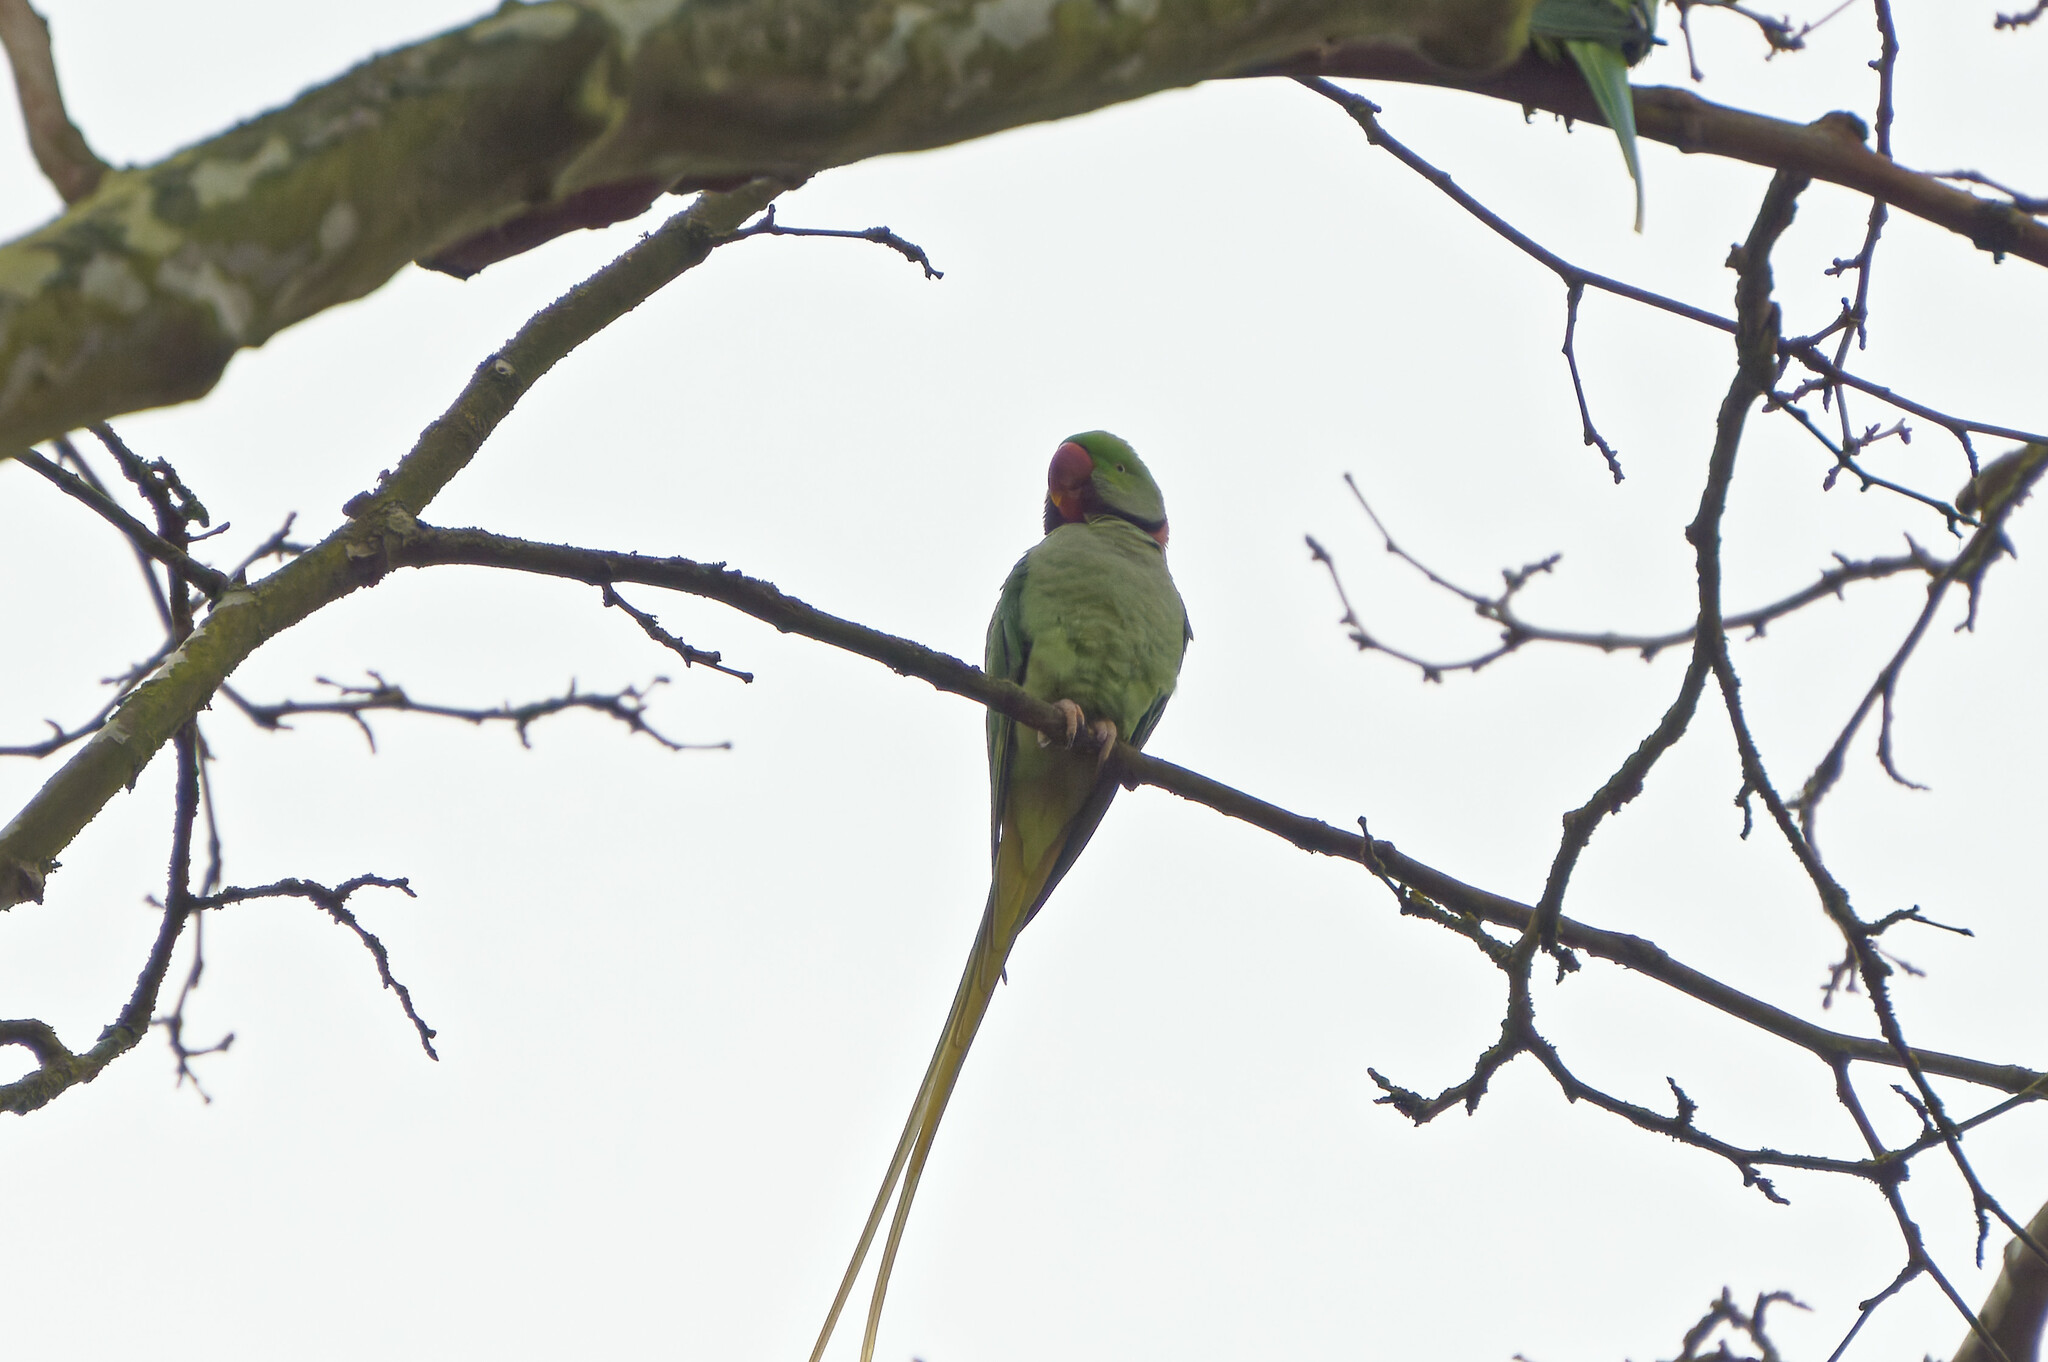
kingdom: Animalia
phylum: Chordata
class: Aves
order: Psittaciformes
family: Psittacidae
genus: Psittacula
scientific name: Psittacula eupatria
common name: Alexandrine parakeet
